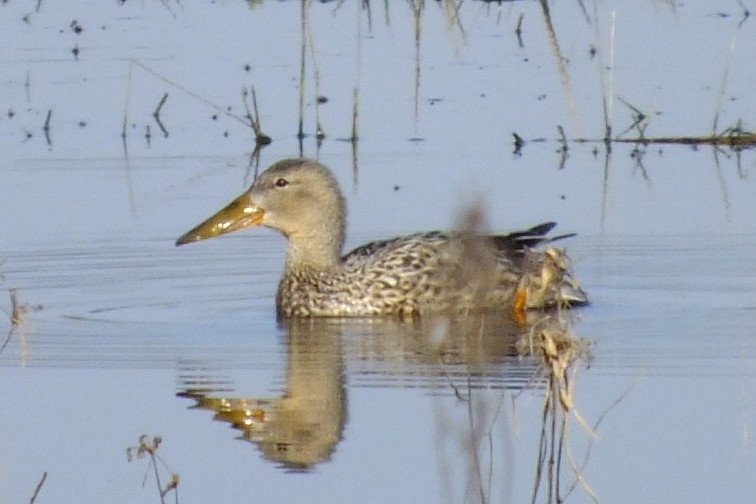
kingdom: Animalia
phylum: Chordata
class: Aves
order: Anseriformes
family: Anatidae
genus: Spatula
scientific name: Spatula clypeata
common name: Northern shoveler
